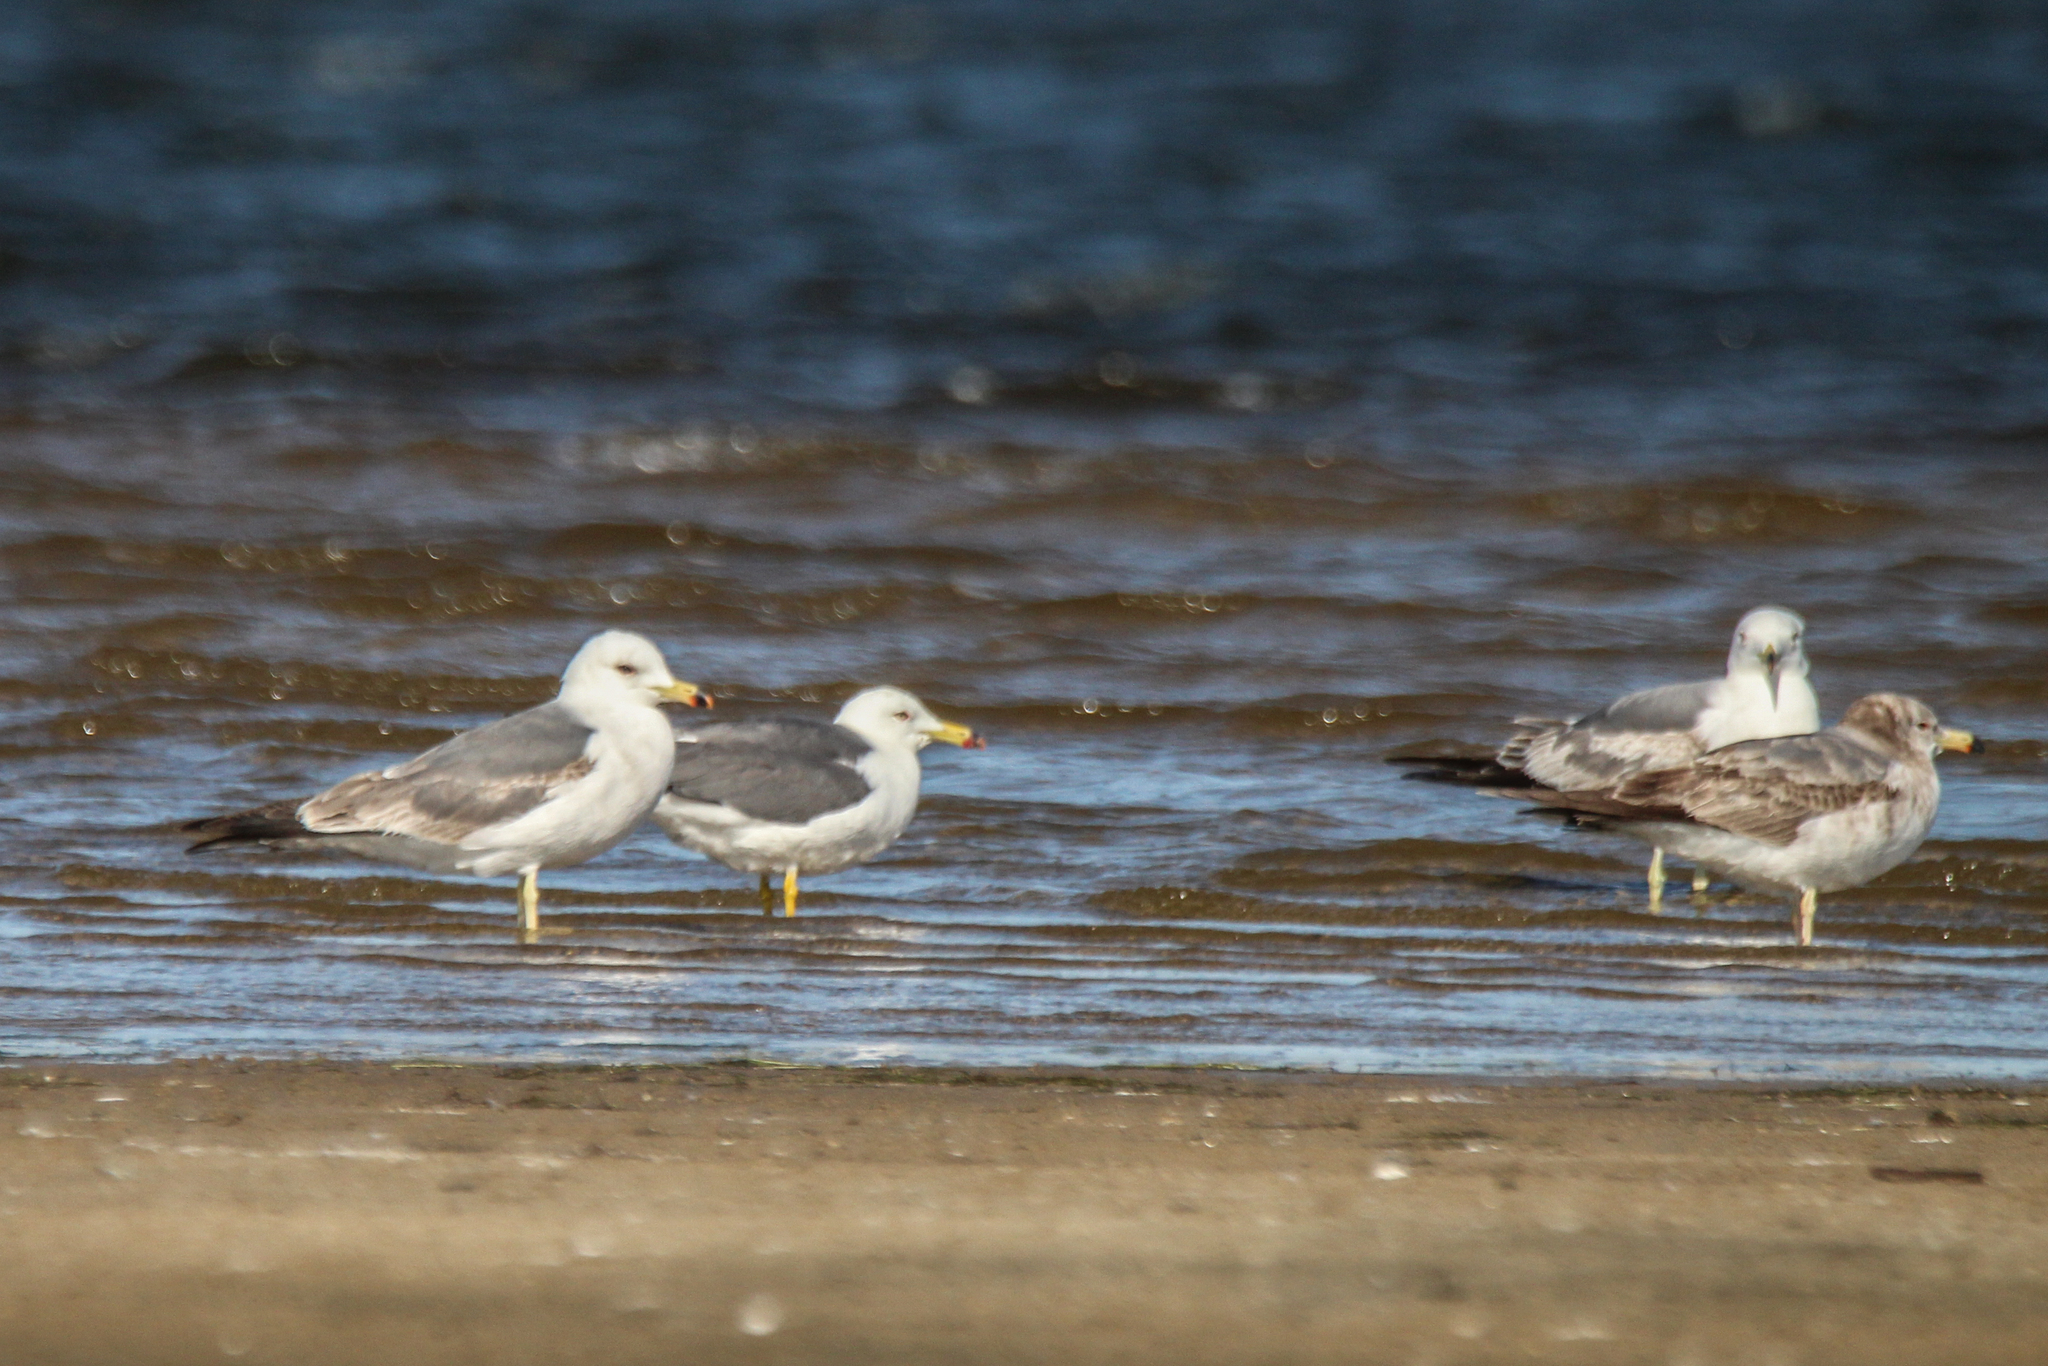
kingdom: Animalia
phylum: Chordata
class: Aves
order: Charadriiformes
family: Laridae
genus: Larus
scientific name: Larus crassirostris
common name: Black-tailed gull
